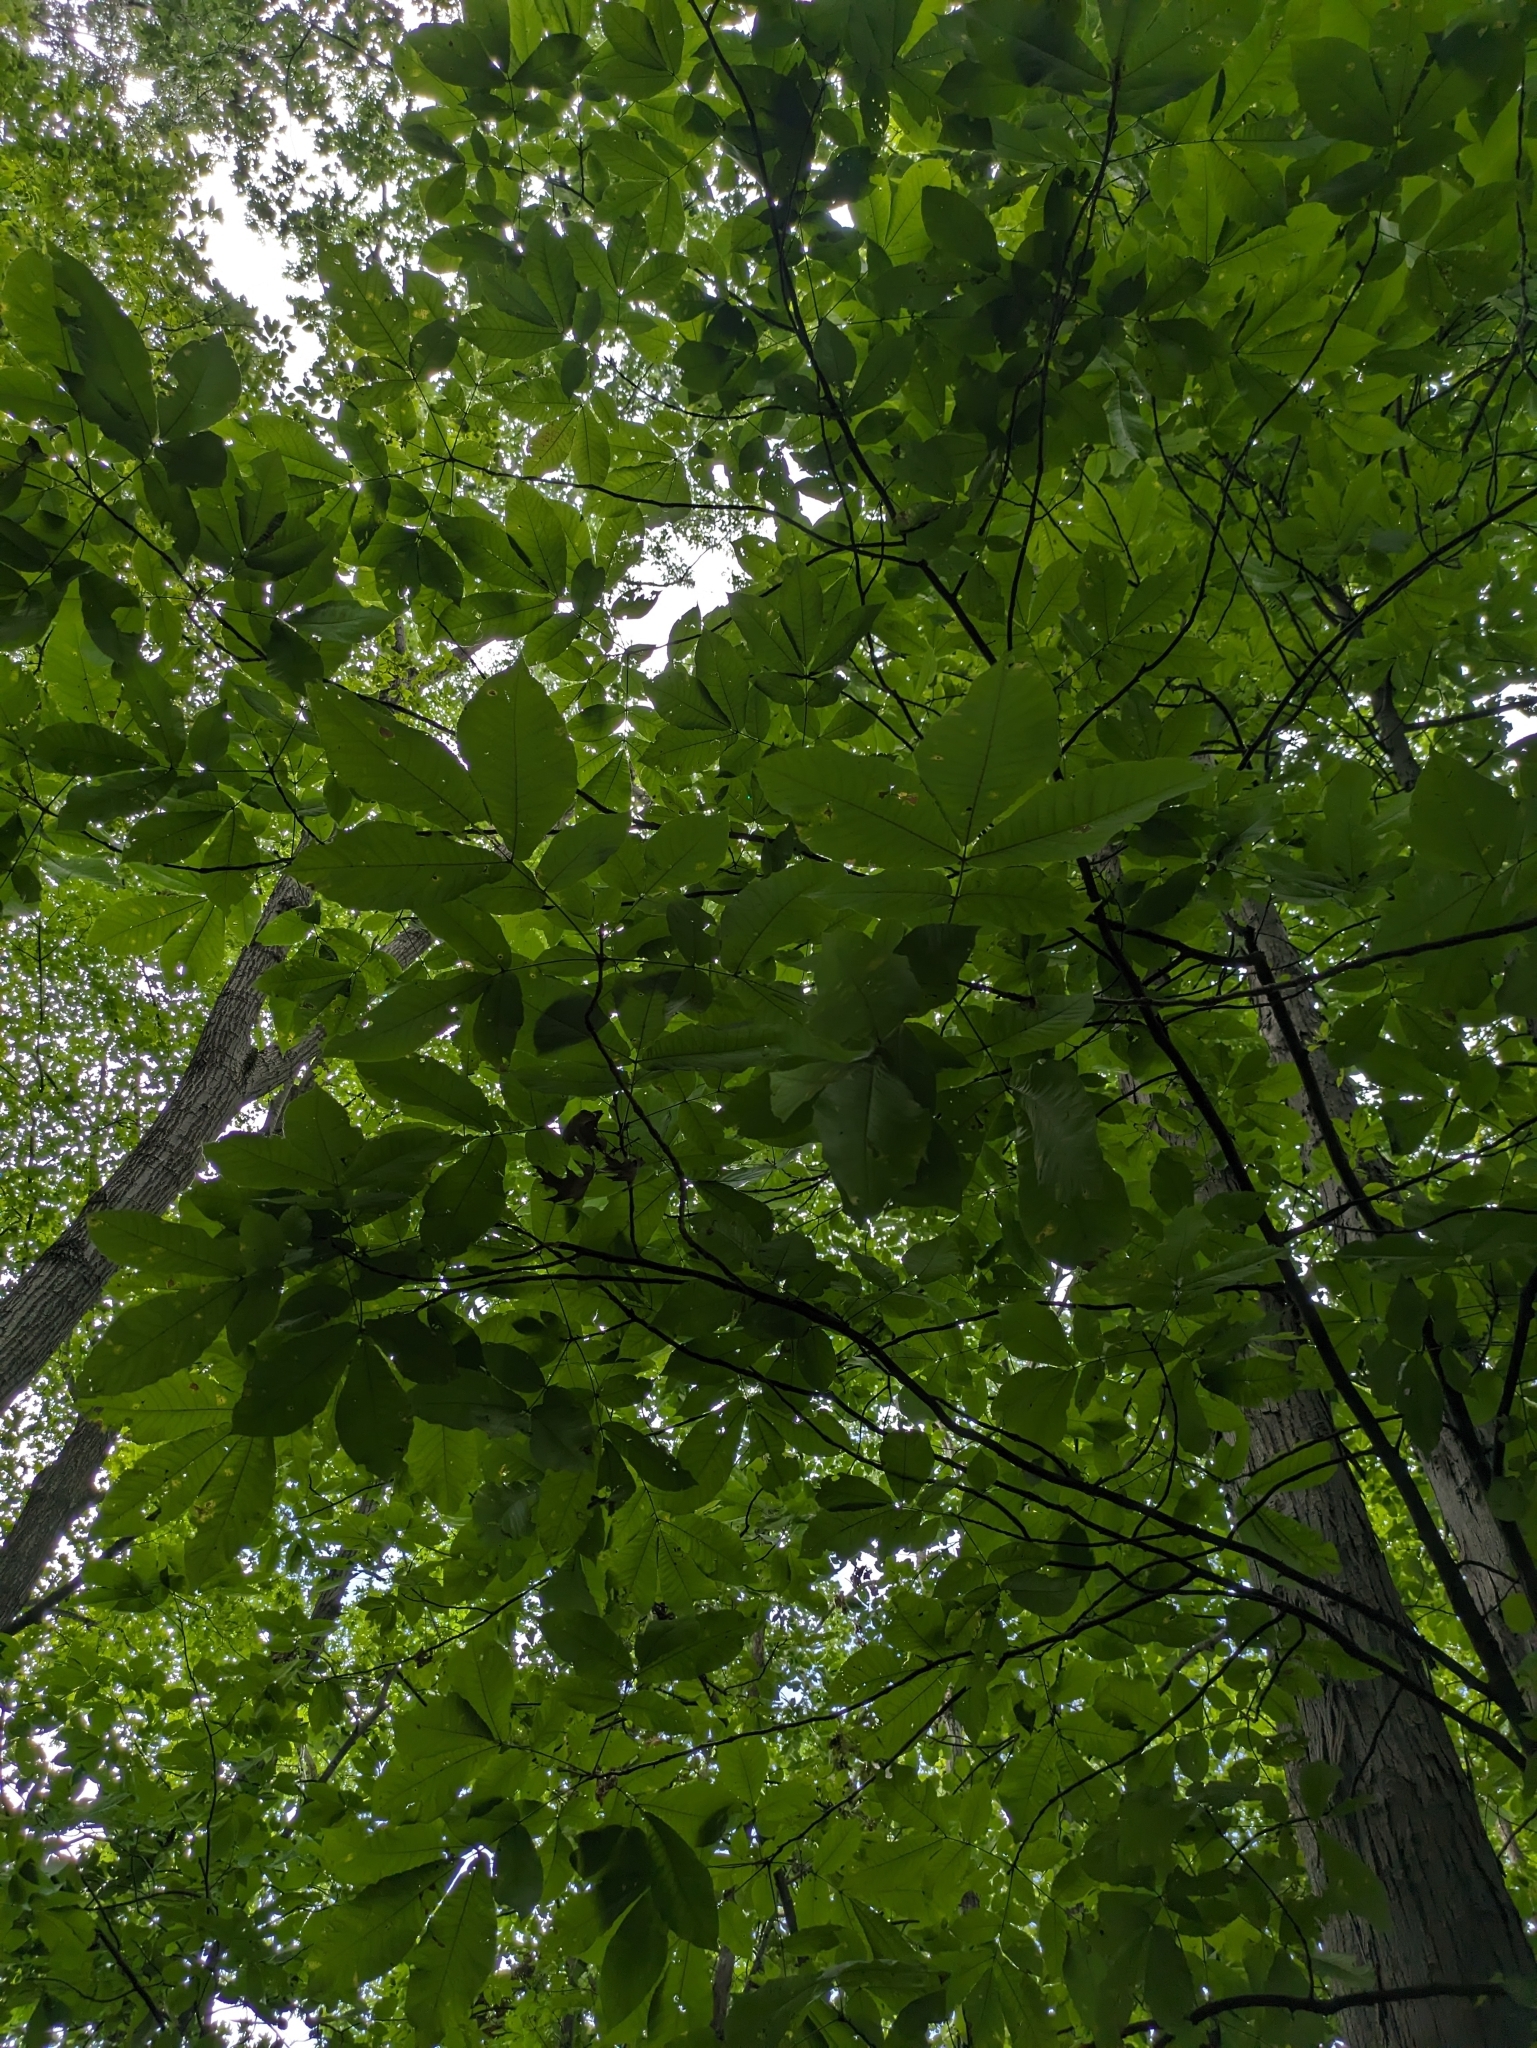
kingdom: Plantae
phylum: Tracheophyta
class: Magnoliopsida
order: Fagales
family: Juglandaceae
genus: Carya
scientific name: Carya ovata
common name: Shagbark hickory
